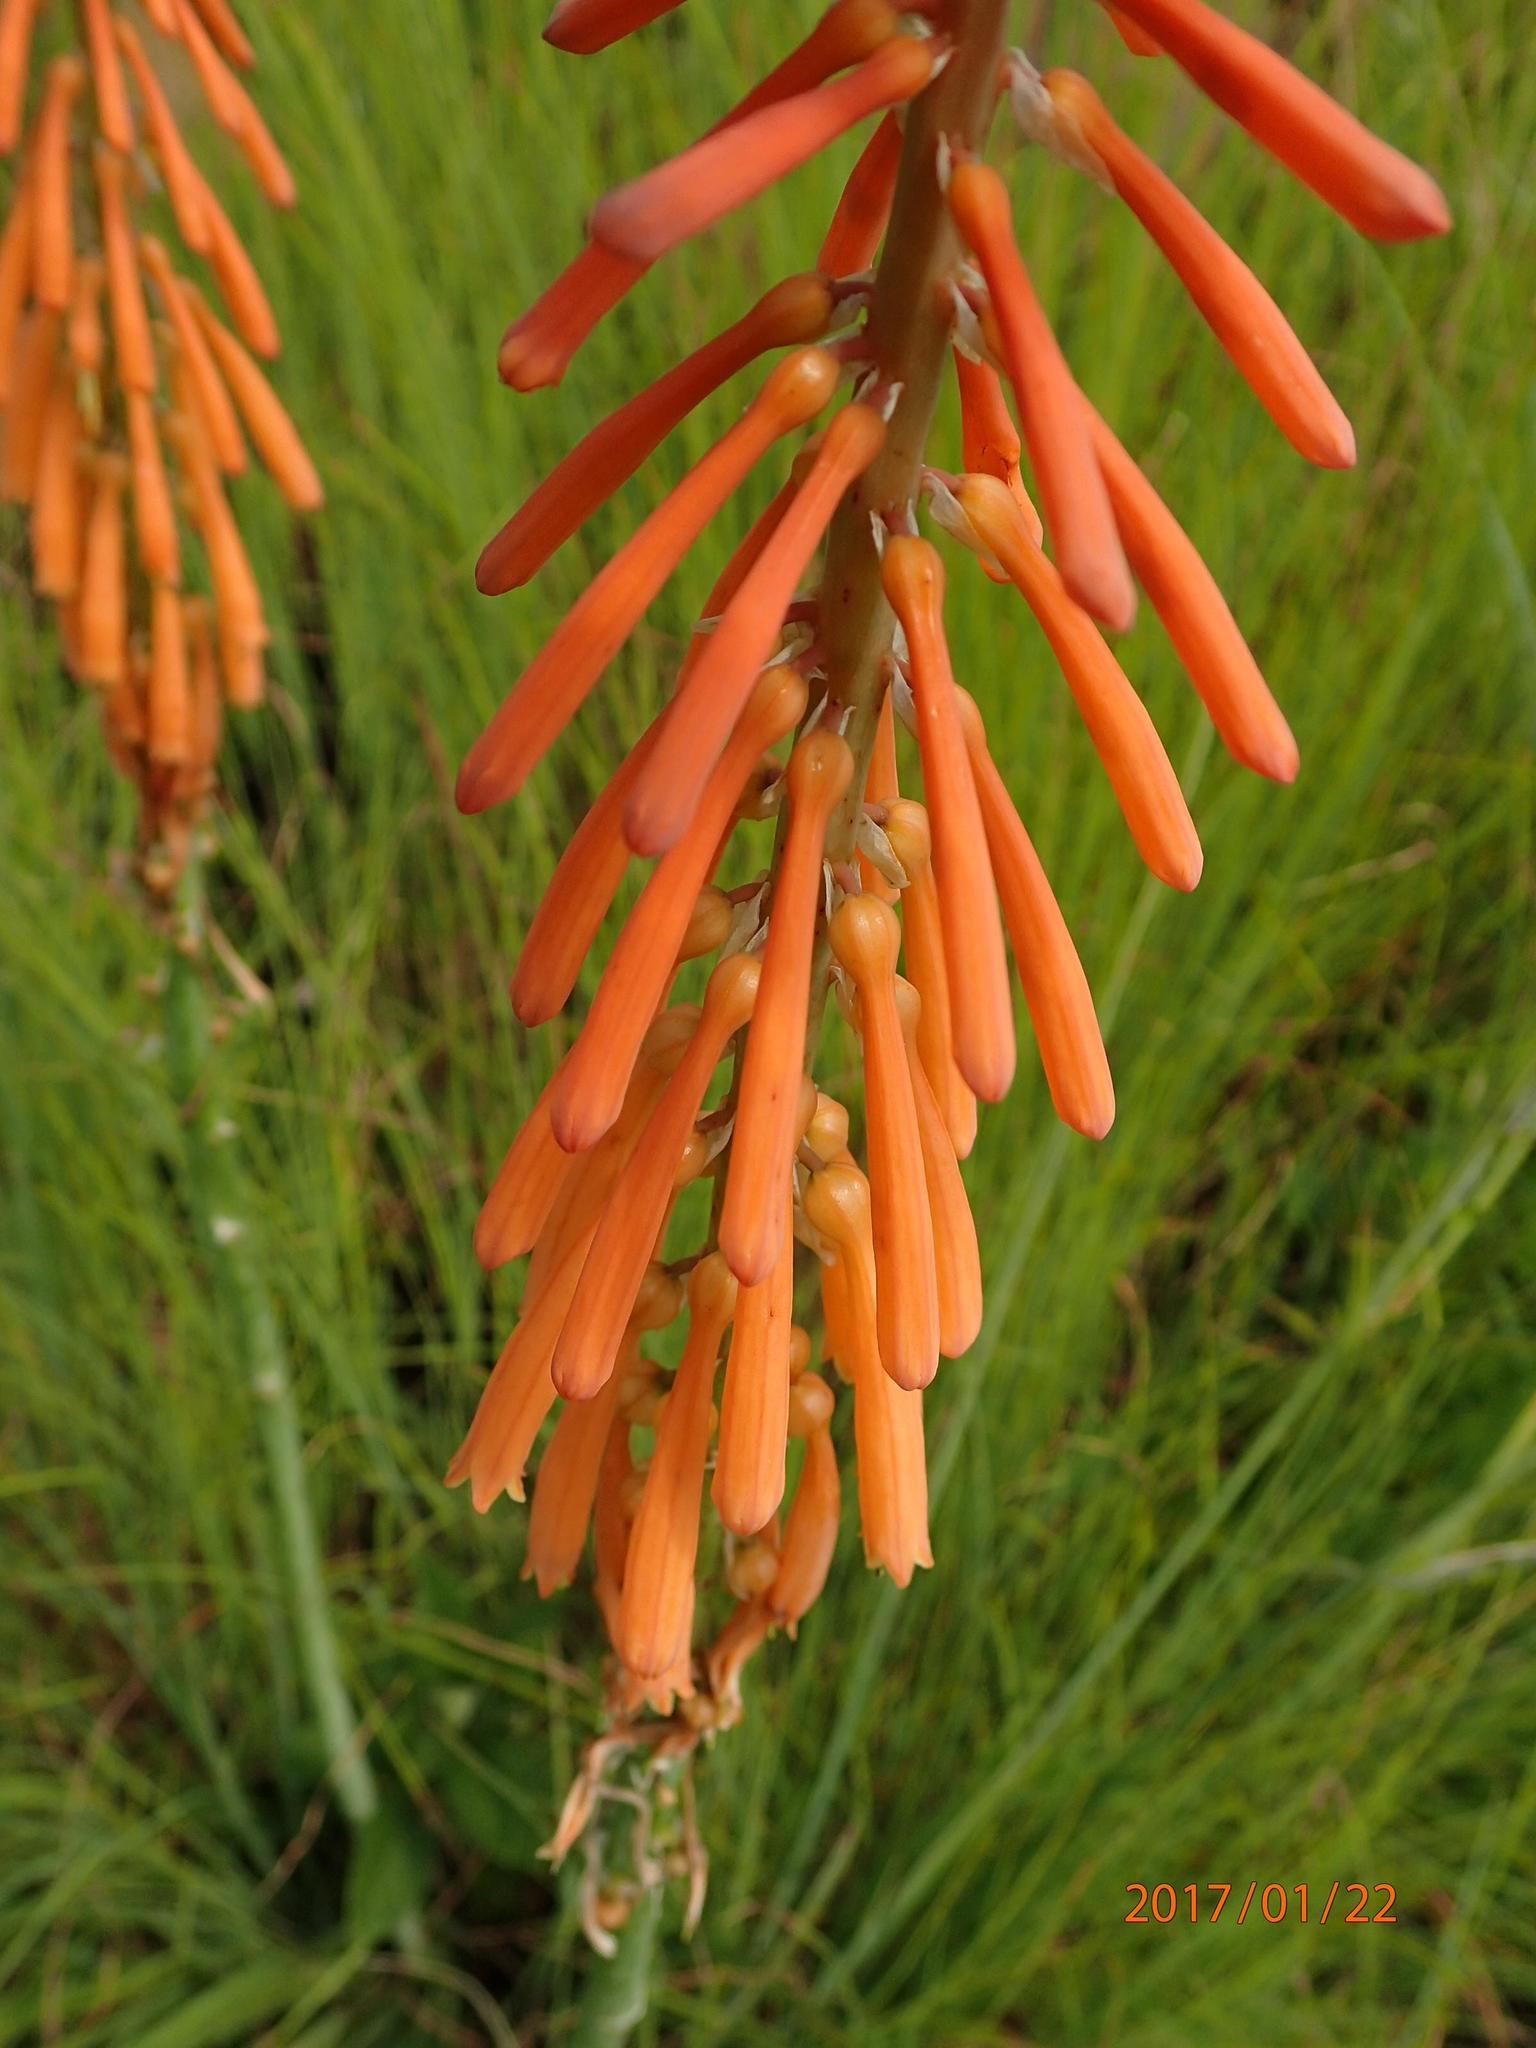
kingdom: Plantae
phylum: Tracheophyta
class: Liliopsida
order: Asparagales
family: Asphodelaceae
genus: Kniphofia
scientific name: Kniphofia laxiflora
